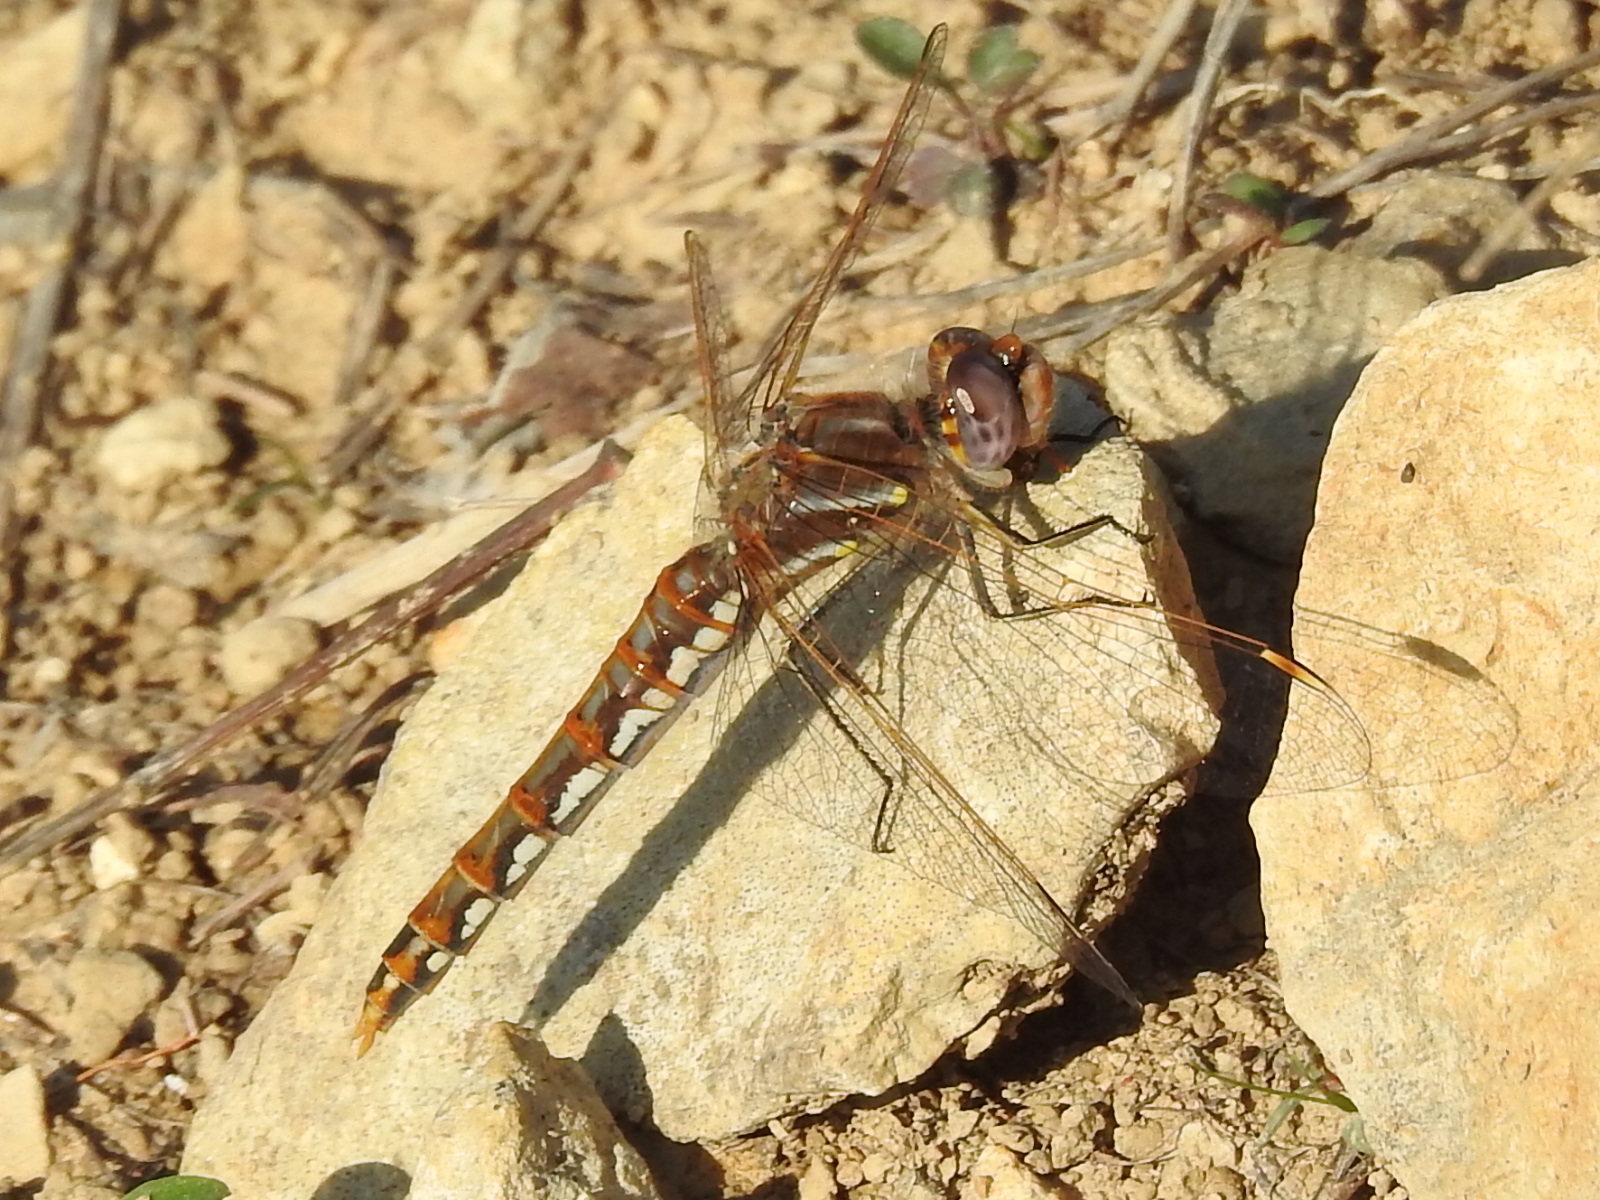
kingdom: Animalia
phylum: Arthropoda
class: Insecta
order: Odonata
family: Libellulidae
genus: Sympetrum
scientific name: Sympetrum corruptum
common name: Variegated meadowhawk
